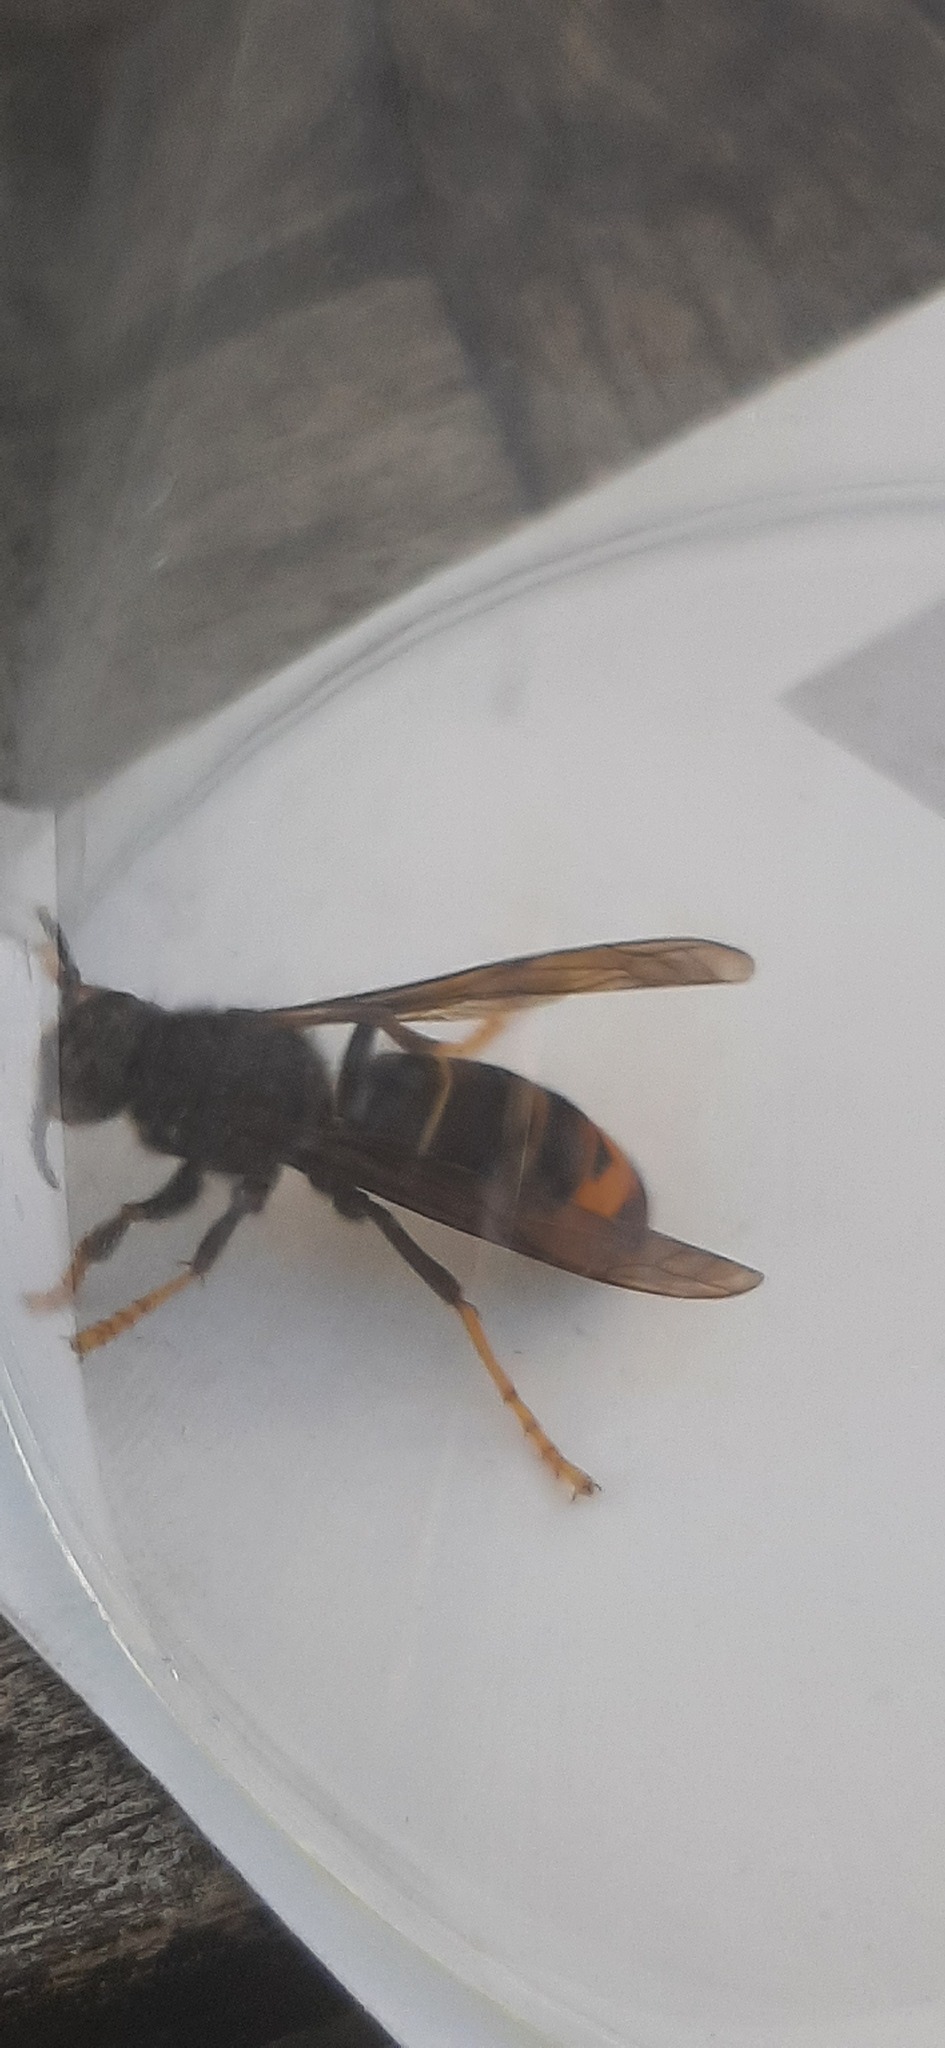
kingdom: Animalia
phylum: Arthropoda
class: Insecta
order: Hymenoptera
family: Vespidae
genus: Vespa
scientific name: Vespa velutina
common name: Asian hornet
